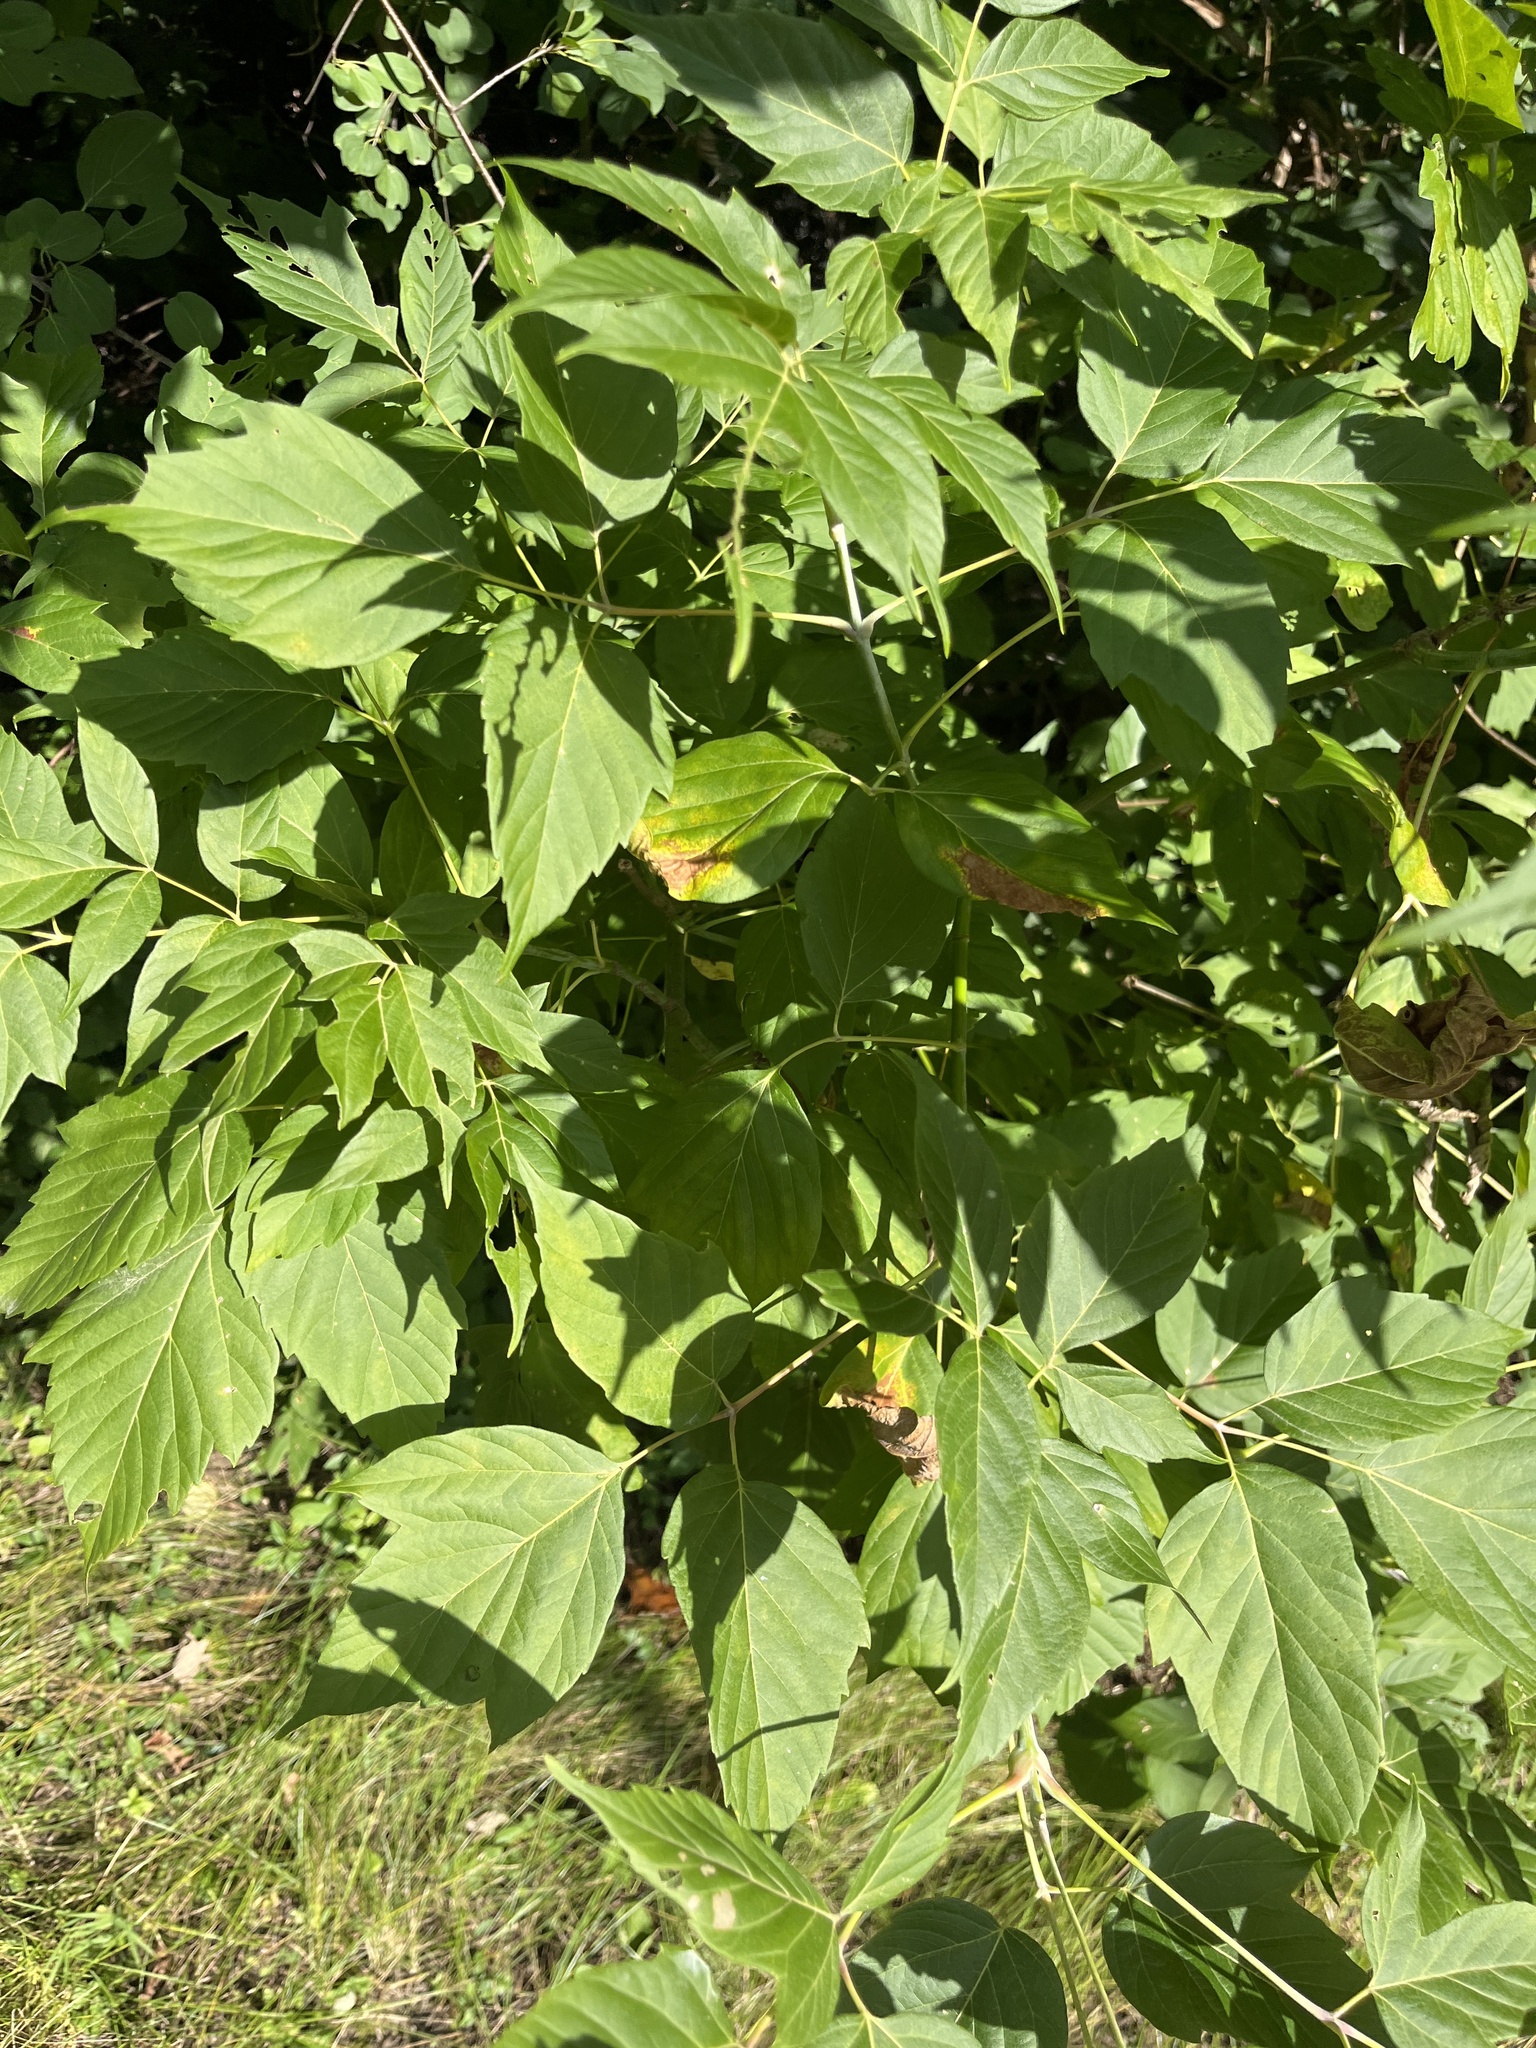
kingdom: Plantae
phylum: Tracheophyta
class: Magnoliopsida
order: Sapindales
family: Sapindaceae
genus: Acer
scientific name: Acer negundo
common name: Ashleaf maple
